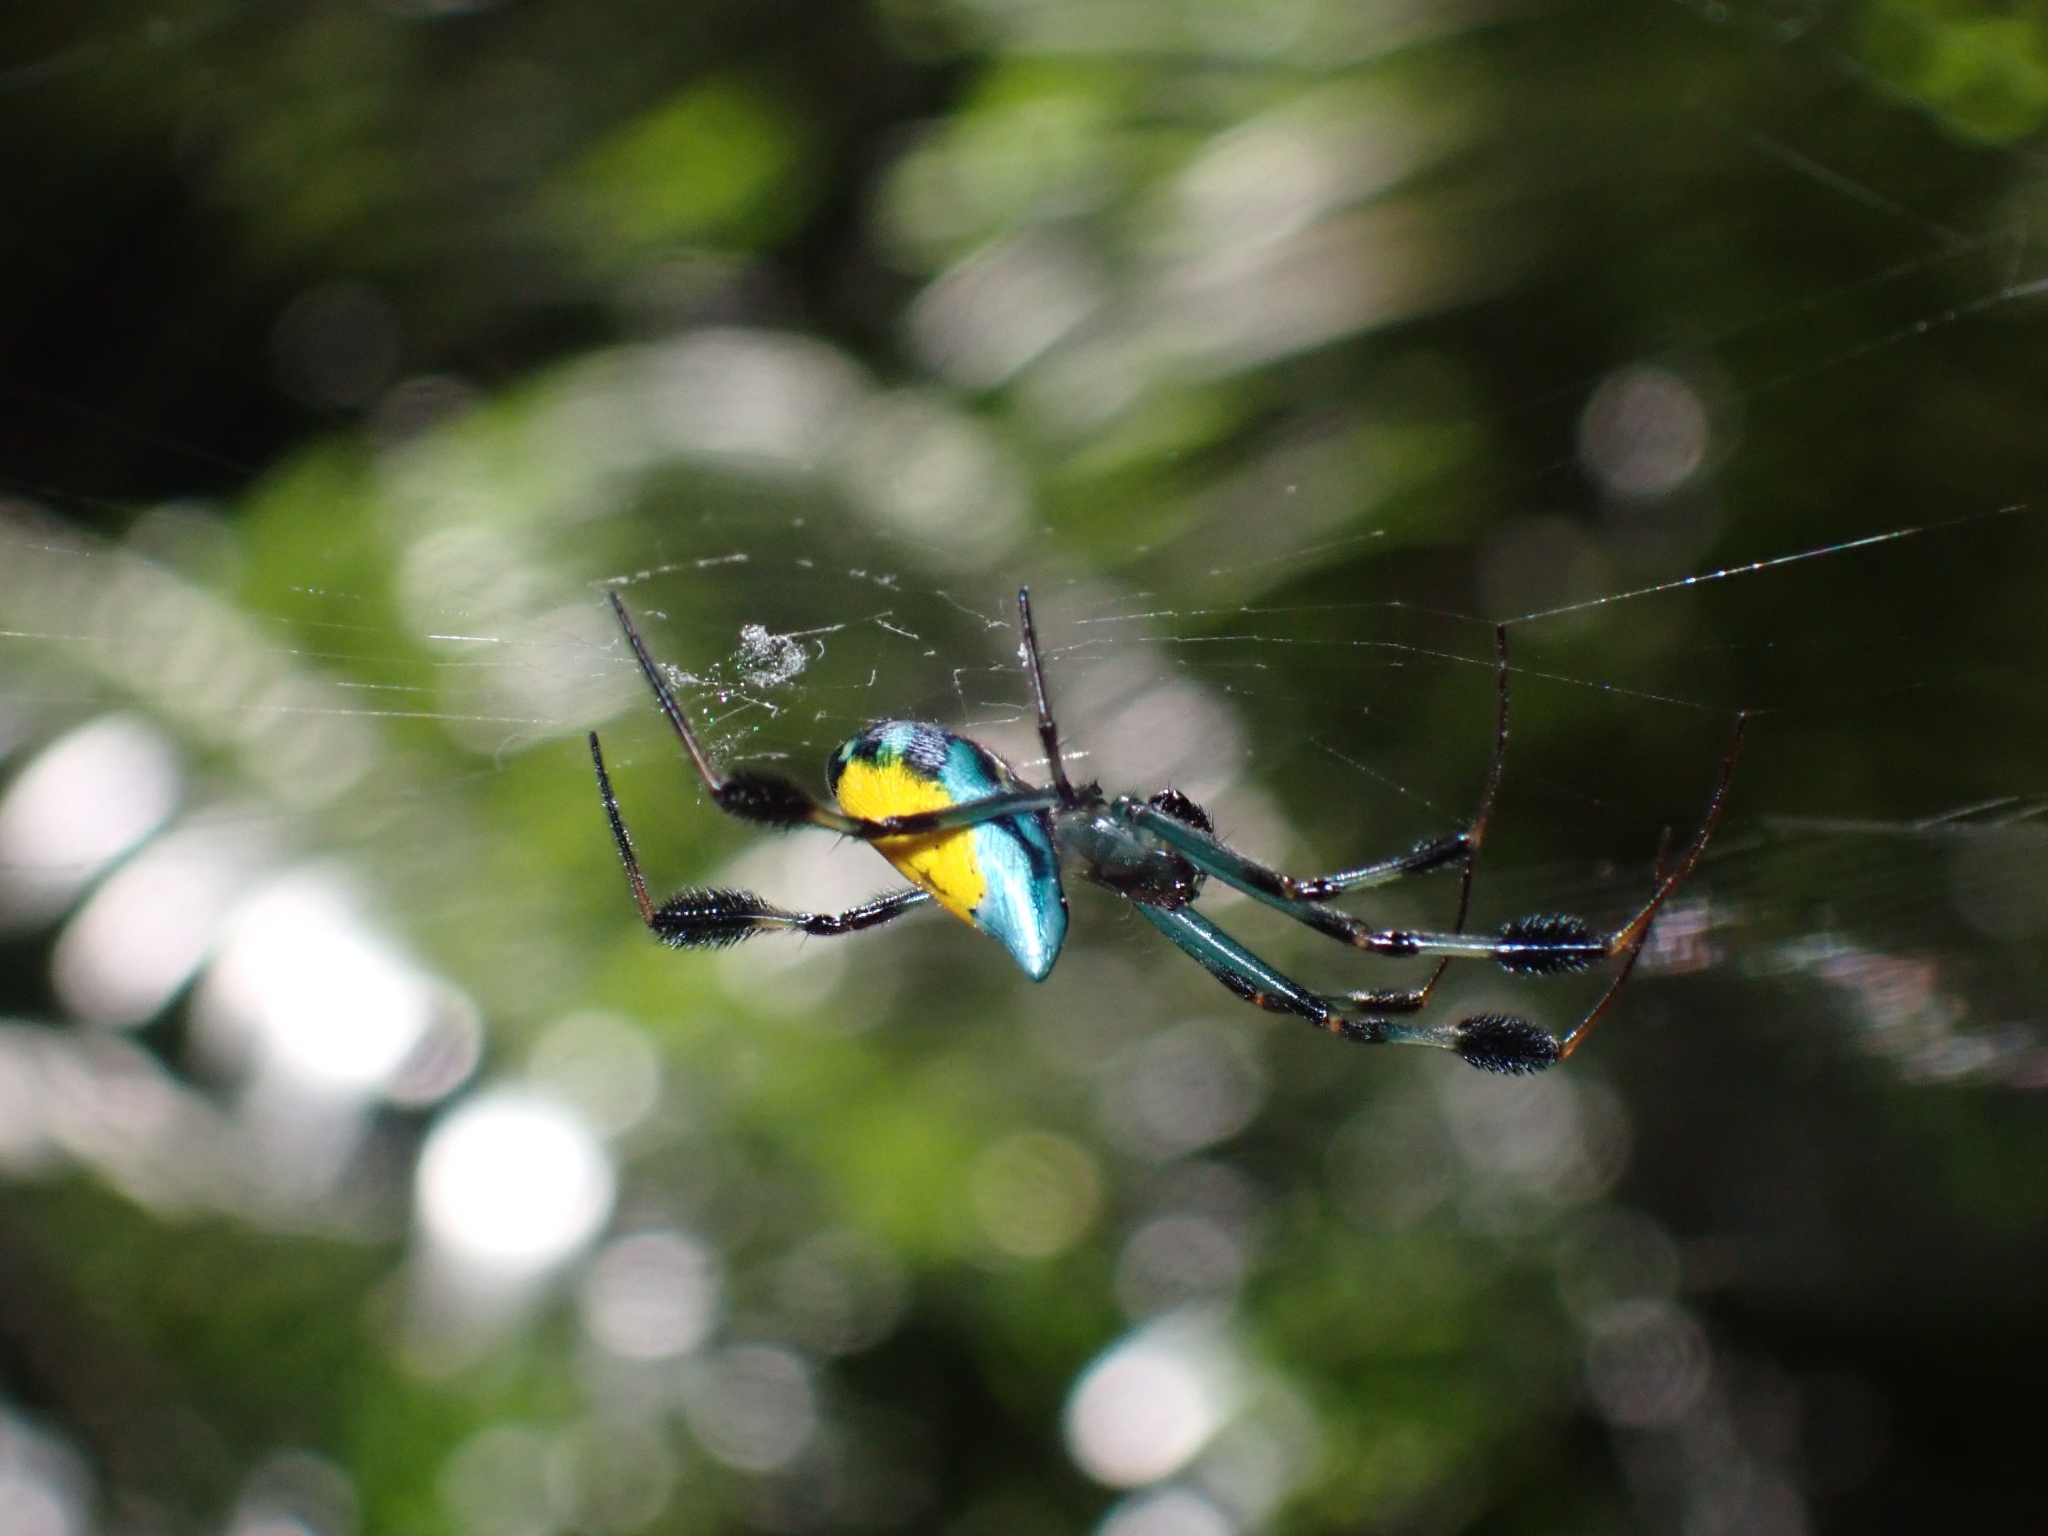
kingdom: Animalia
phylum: Arthropoda
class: Arachnida
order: Araneae
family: Tetragnathidae
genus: Leucauge
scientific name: Leucauge sarawakensis
